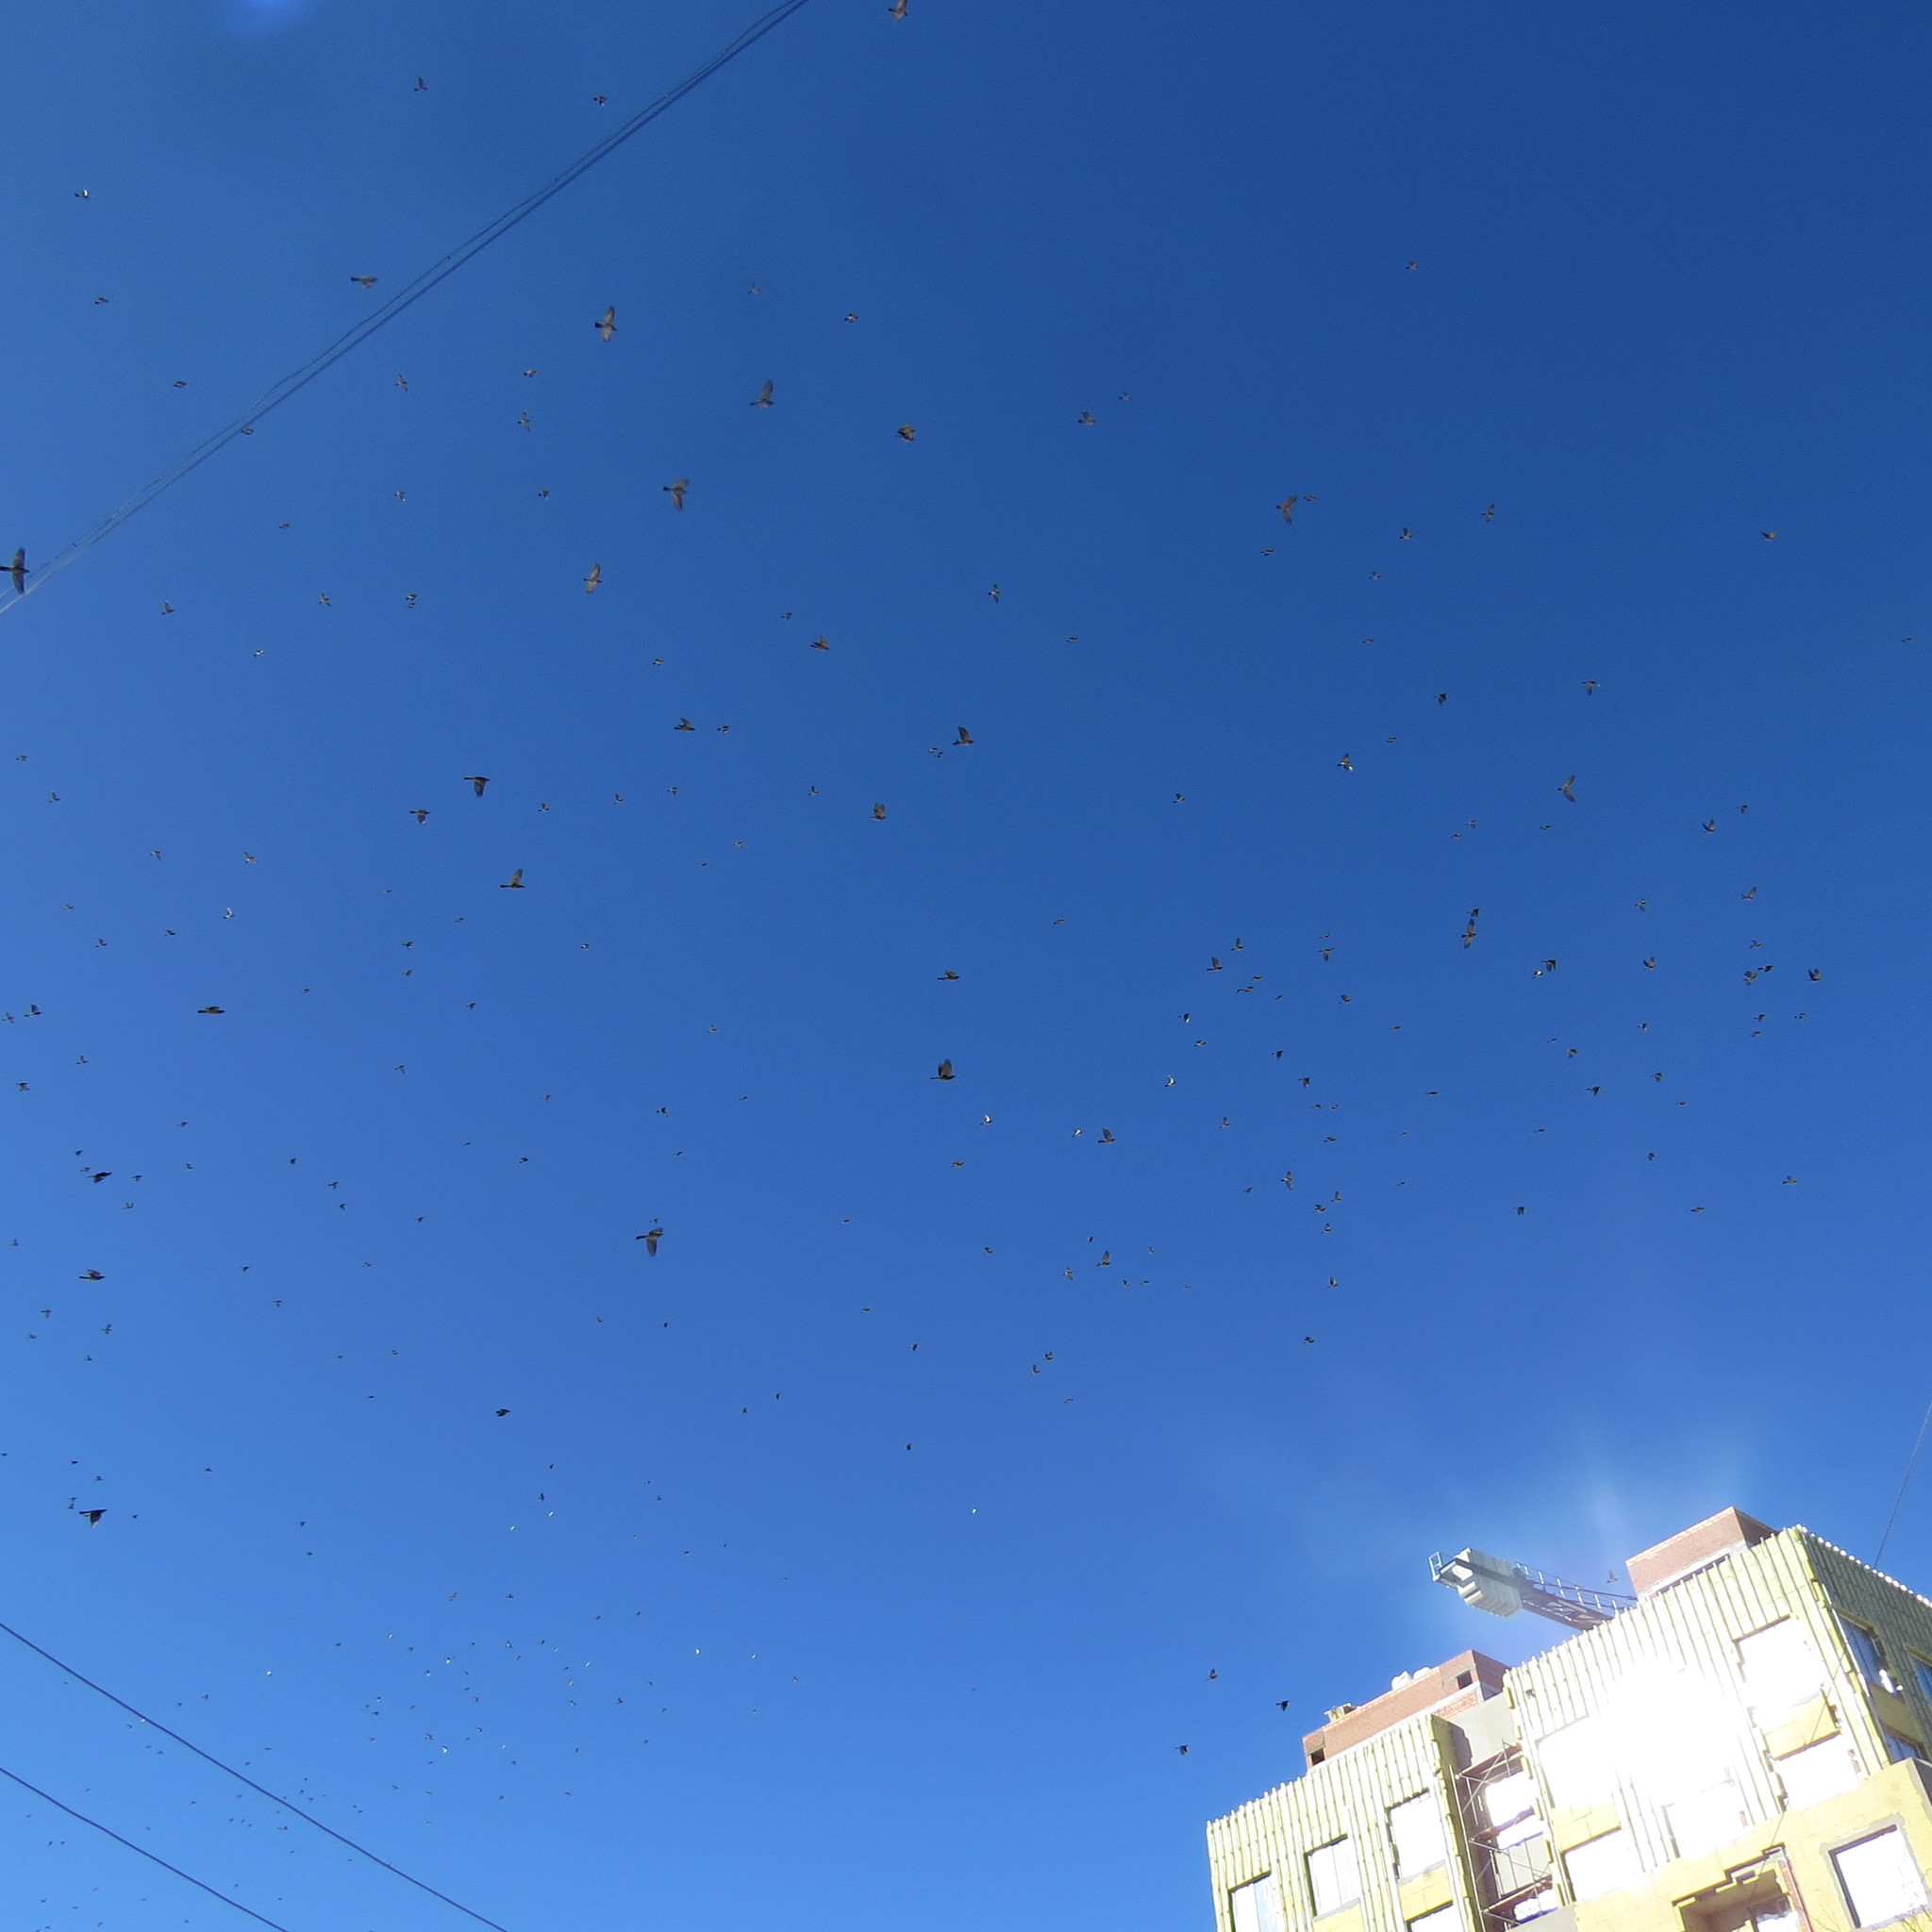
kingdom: Animalia
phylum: Chordata
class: Aves
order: Passeriformes
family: Turdidae
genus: Turdus
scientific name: Turdus pilaris
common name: Fieldfare
